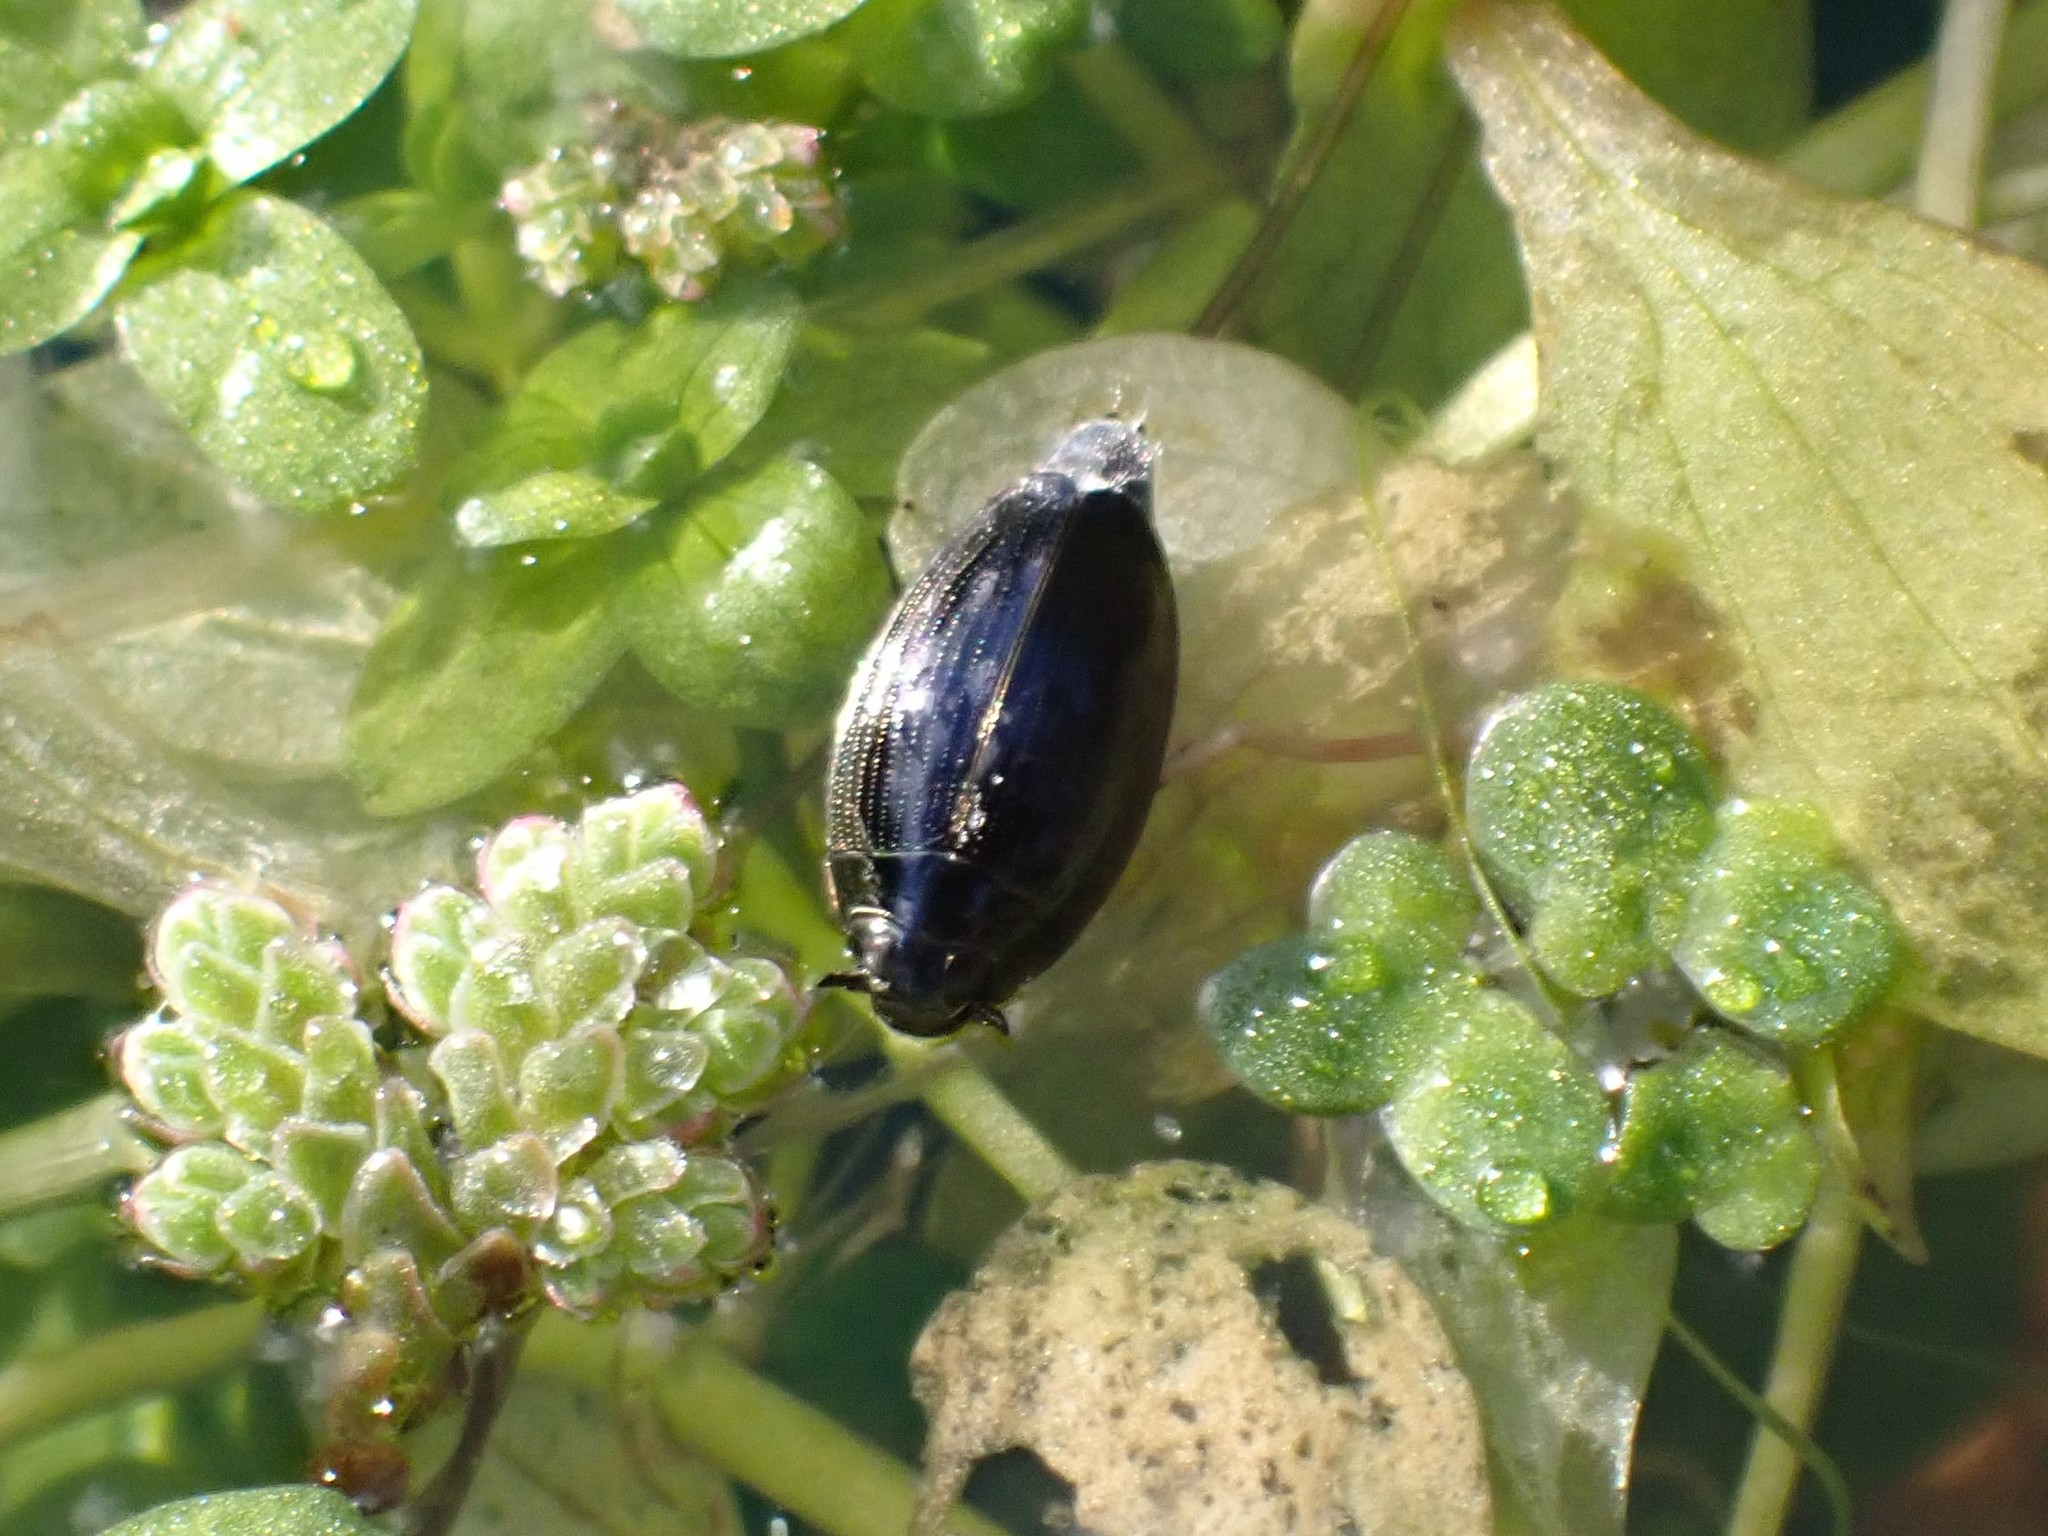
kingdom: Animalia
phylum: Arthropoda
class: Insecta
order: Coleoptera
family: Gyrinidae
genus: Gyrinus
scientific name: Gyrinus
